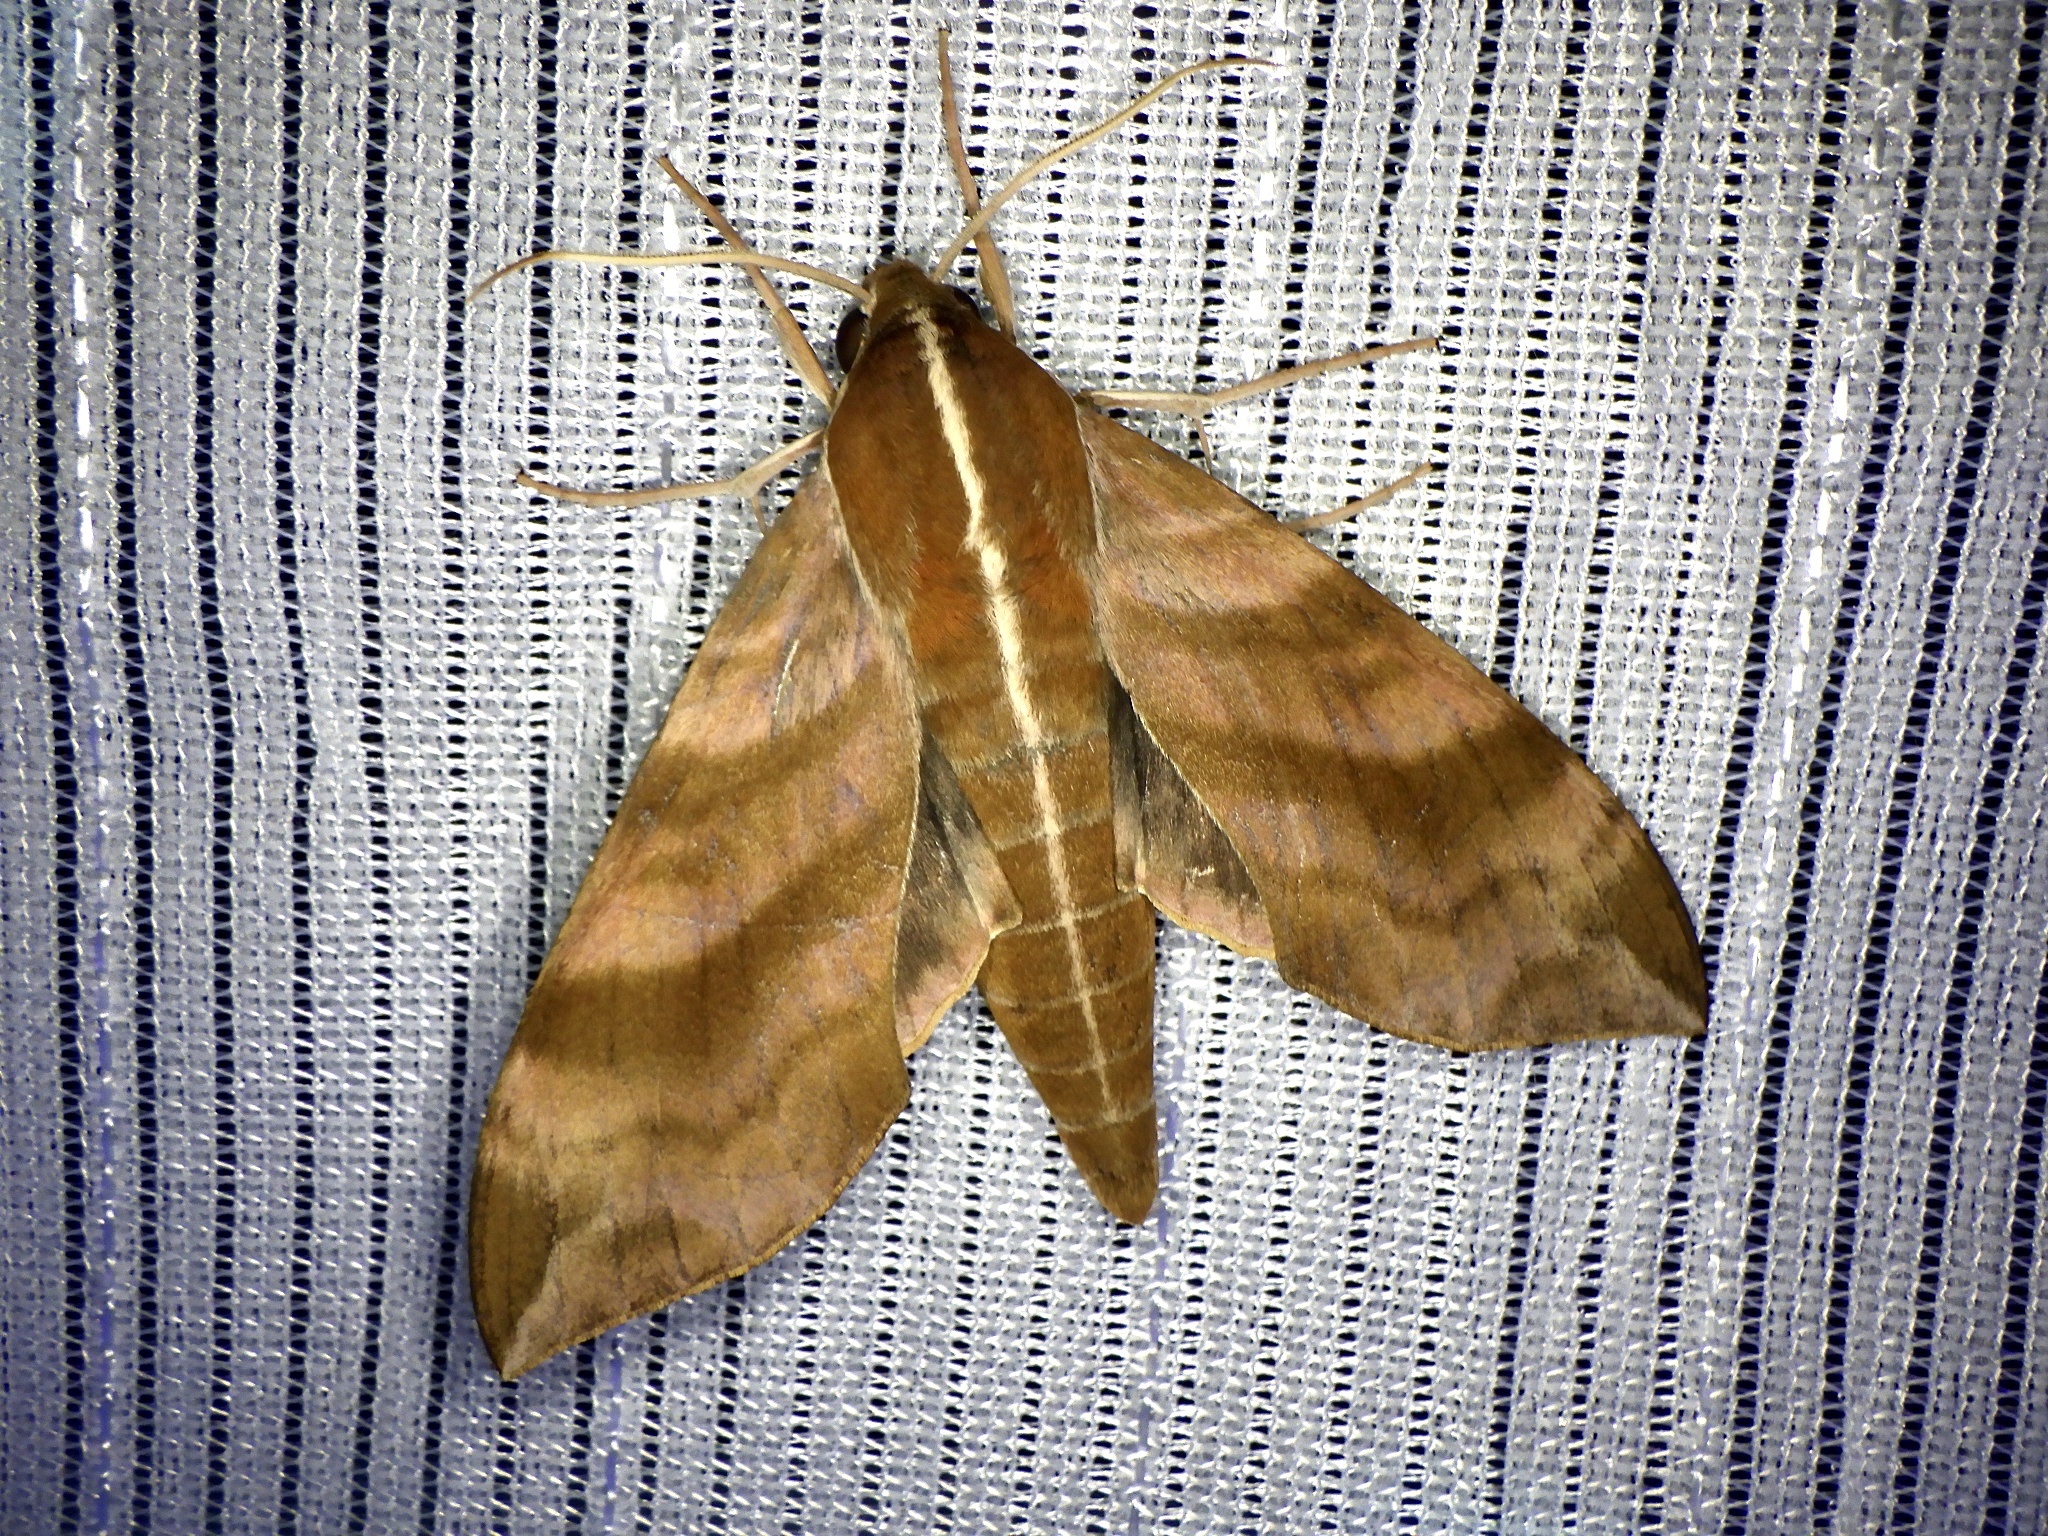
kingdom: Animalia
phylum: Arthropoda
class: Insecta
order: Lepidoptera
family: Sphingidae
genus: Ampelophaga
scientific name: Ampelophaga rubiginosa
